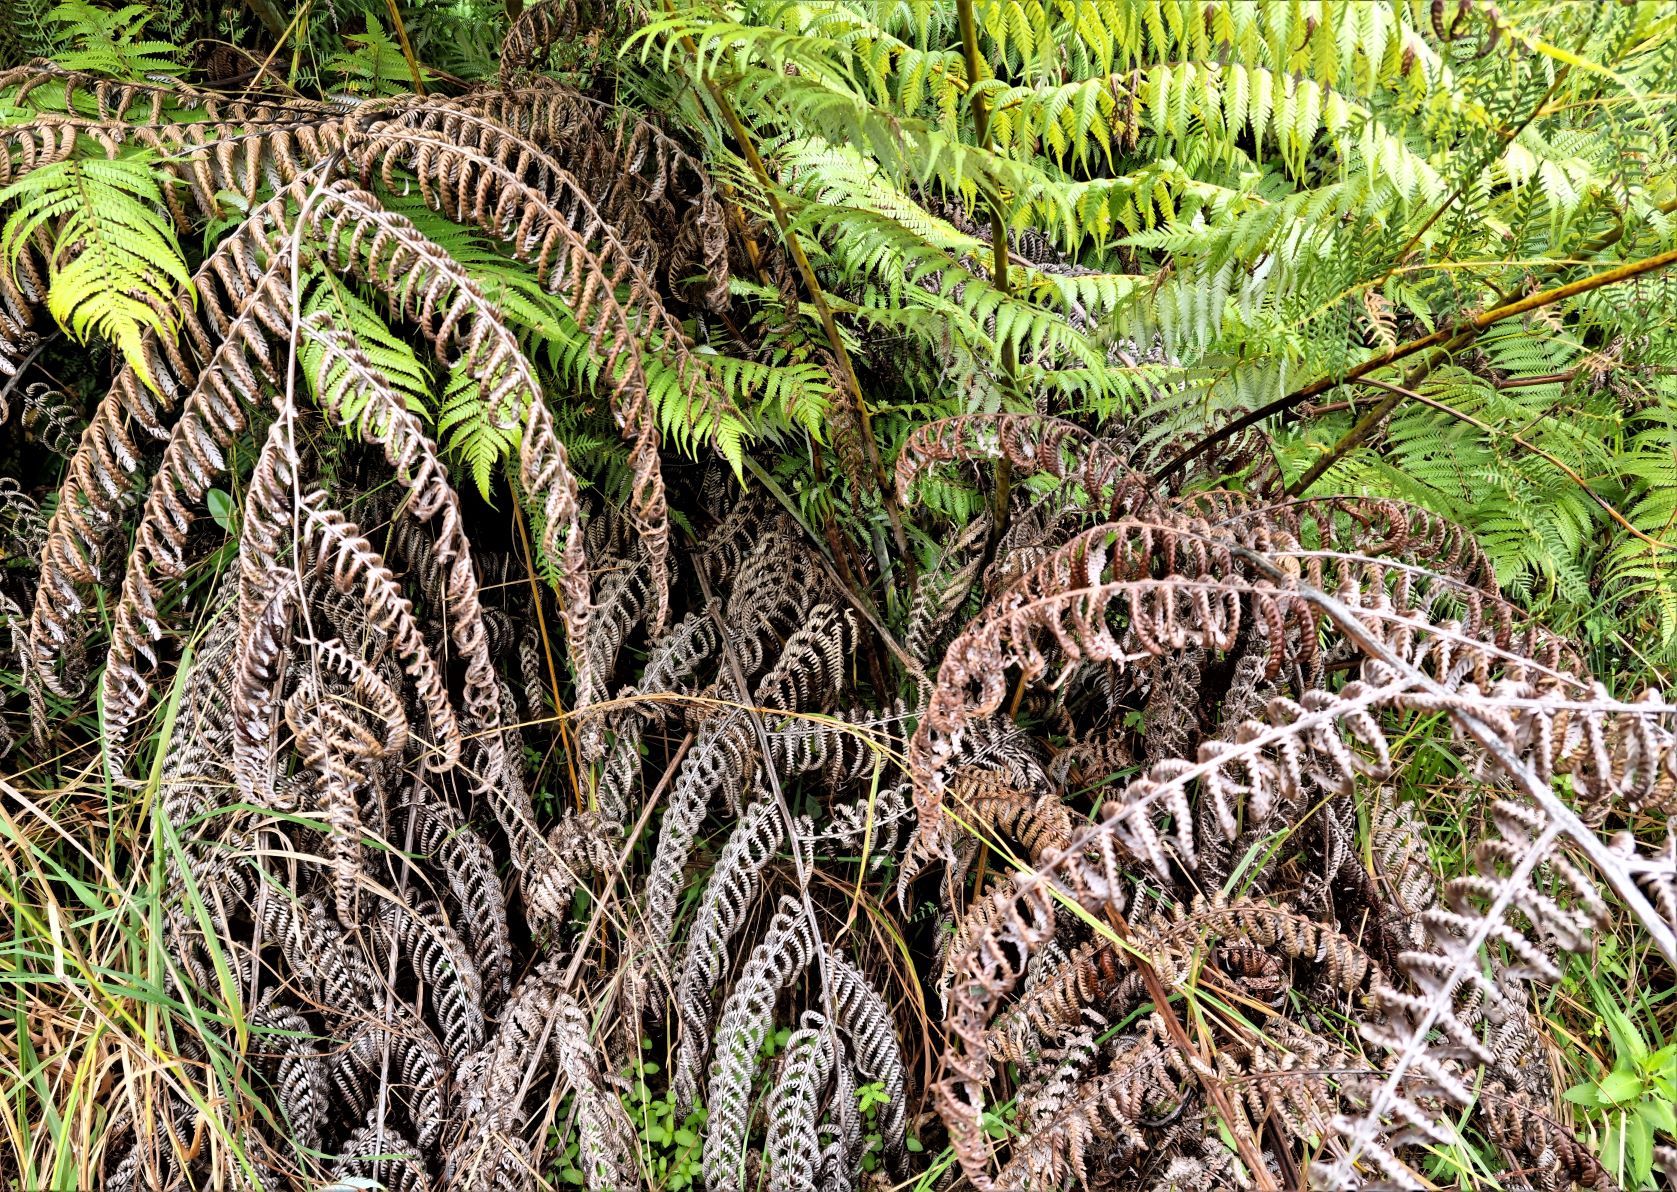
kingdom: Plantae
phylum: Tracheophyta
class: Polypodiopsida
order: Cyatheales
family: Cyatheaceae
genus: Alsophila
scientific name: Alsophila dealbata
